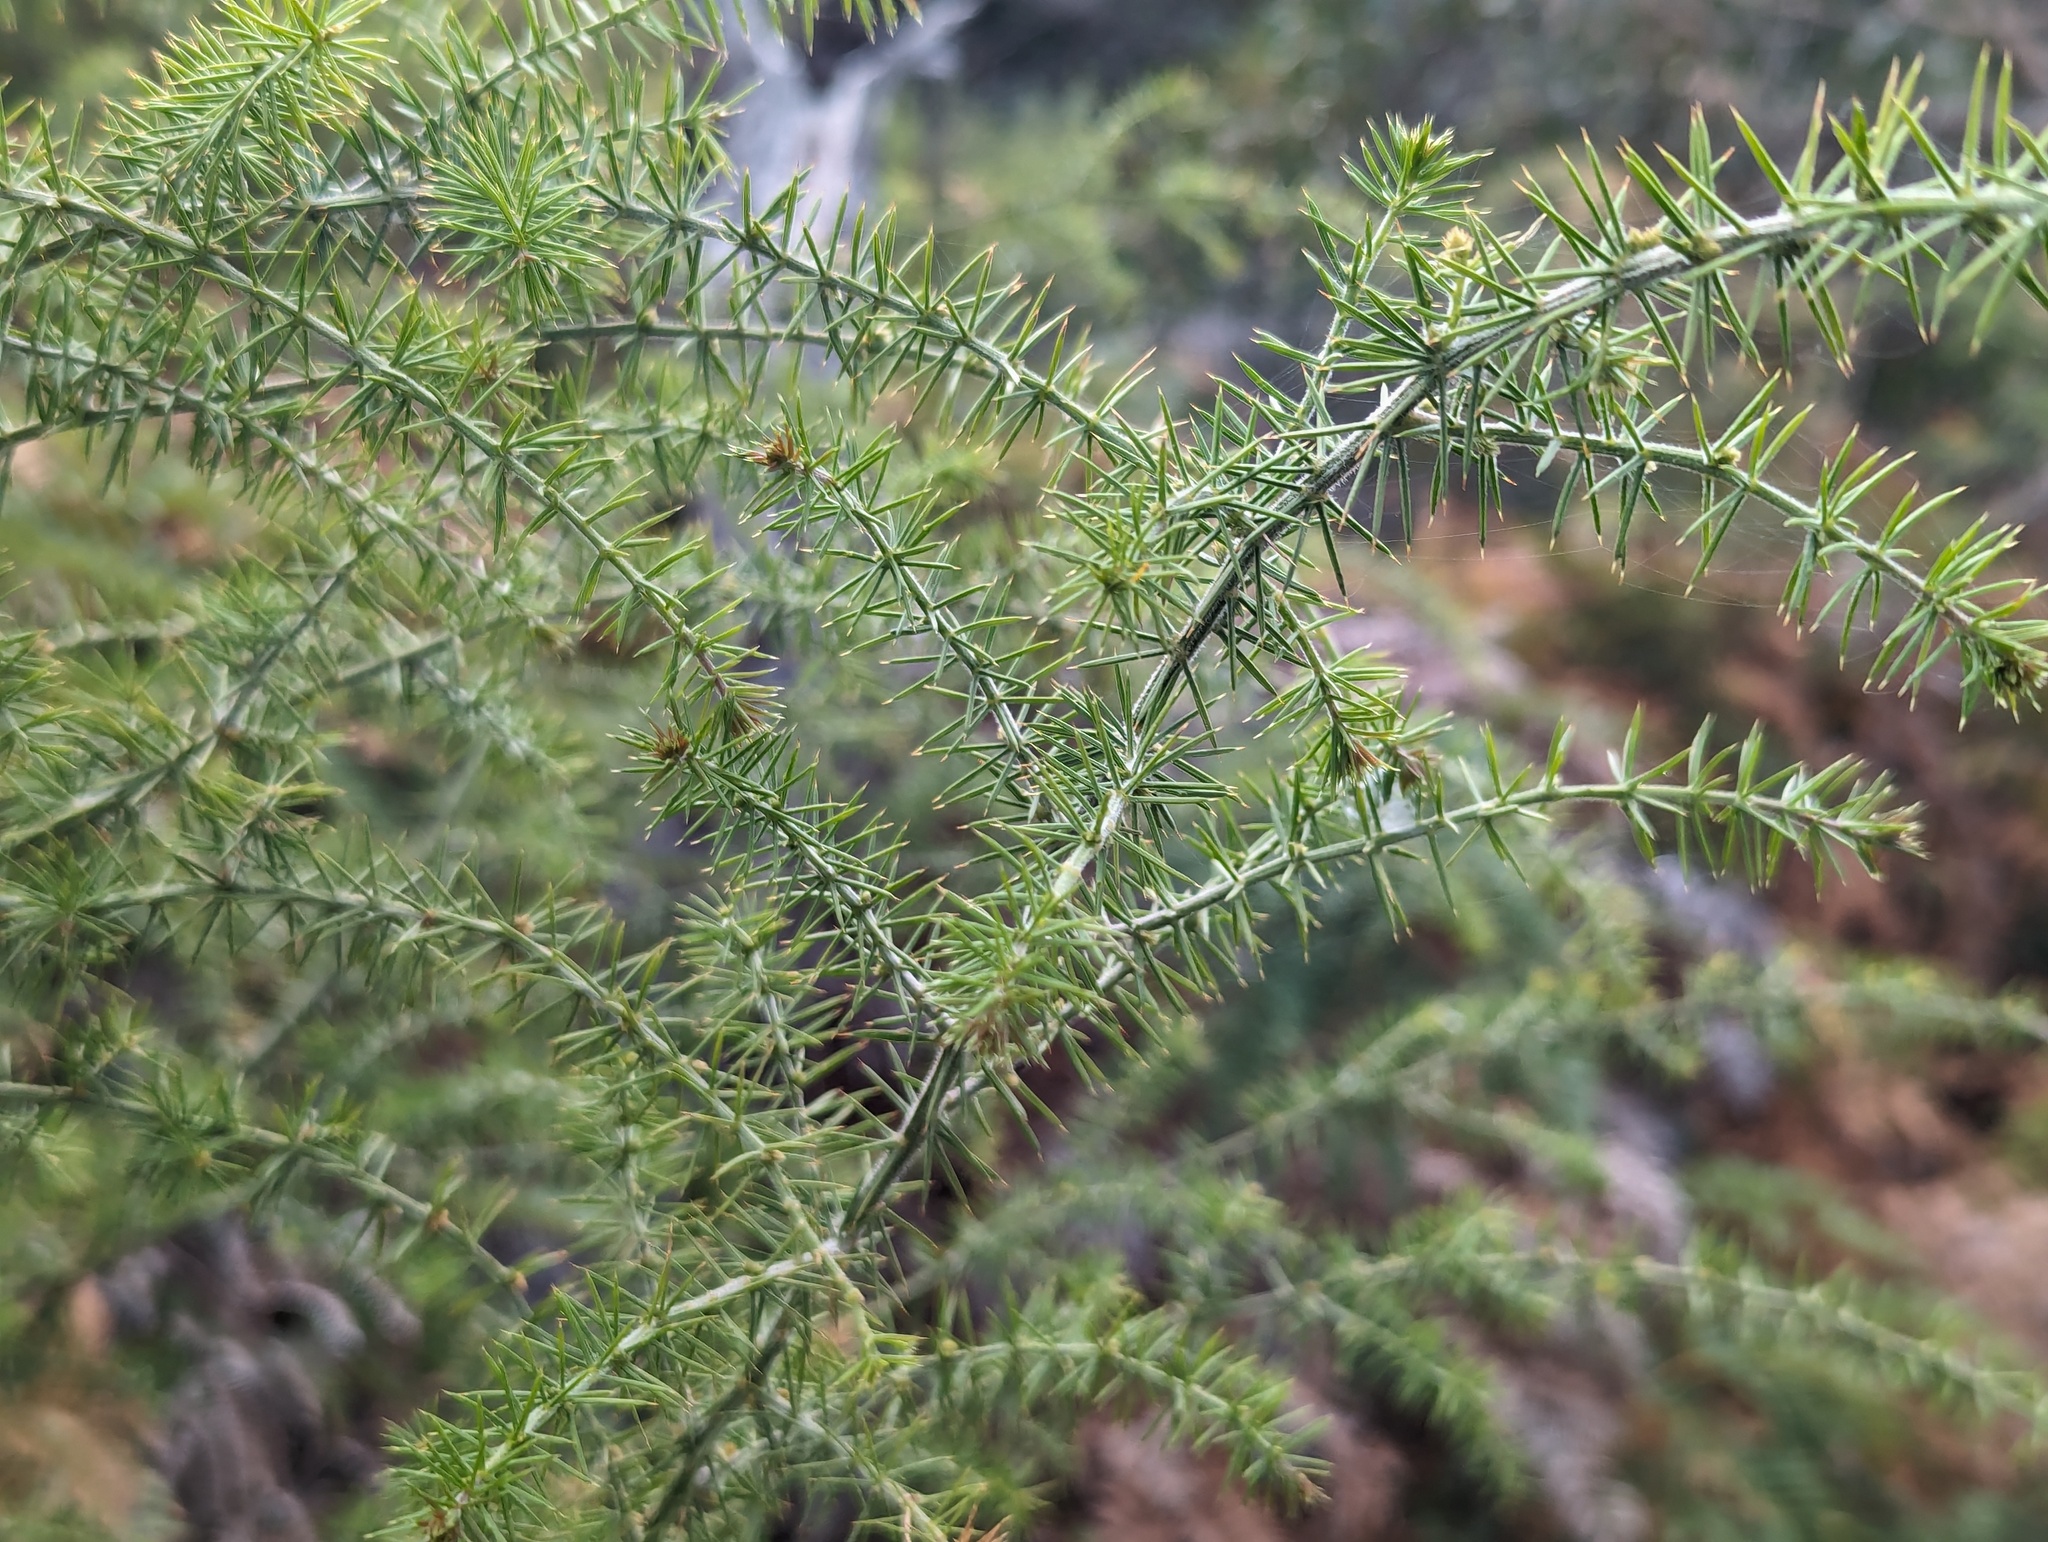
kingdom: Plantae
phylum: Tracheophyta
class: Magnoliopsida
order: Fabales
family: Fabaceae
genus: Acacia
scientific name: Acacia verticillata
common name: Prickly moses
